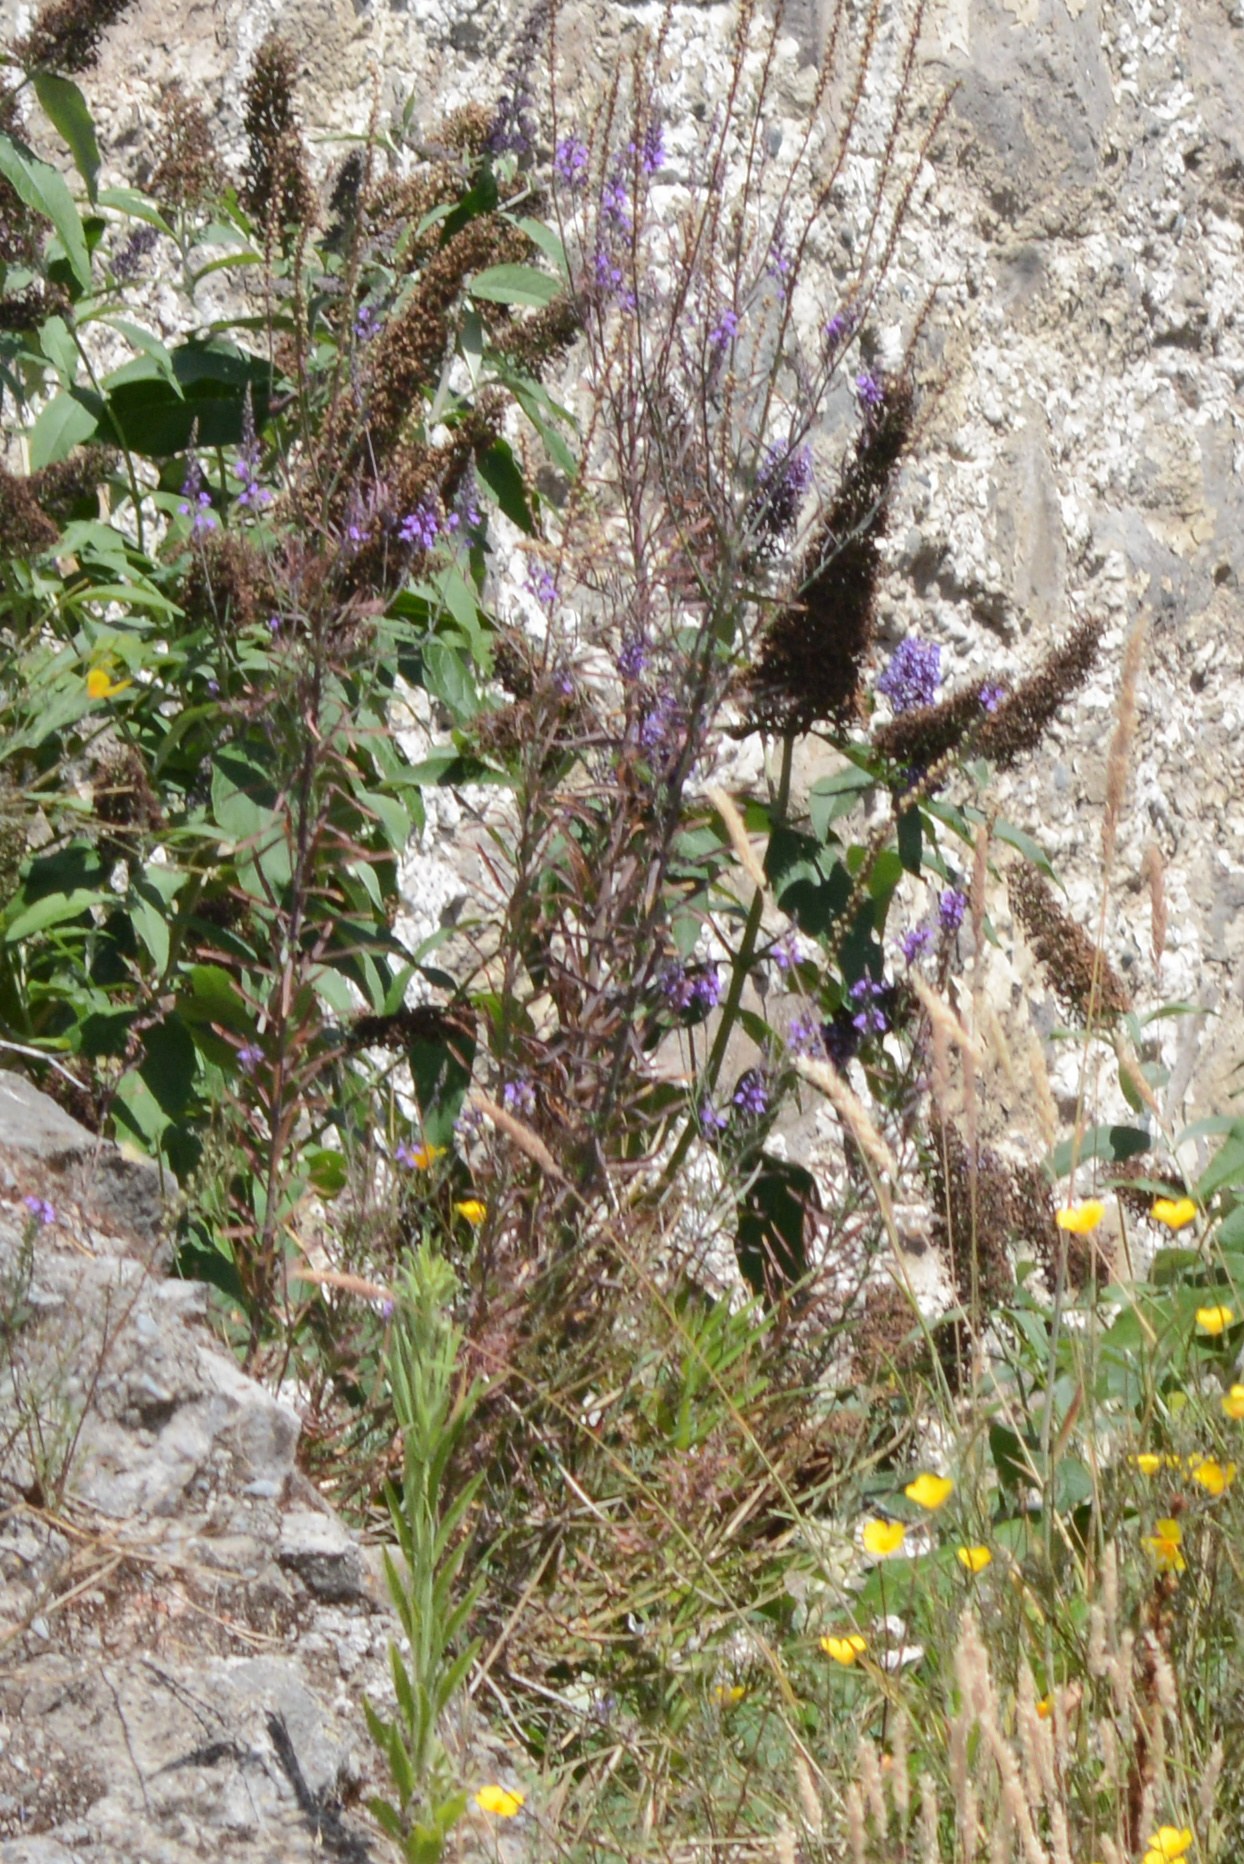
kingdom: Plantae
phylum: Tracheophyta
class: Magnoliopsida
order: Lamiales
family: Plantaginaceae
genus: Linaria
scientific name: Linaria purpurea
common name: Purple toadflax
